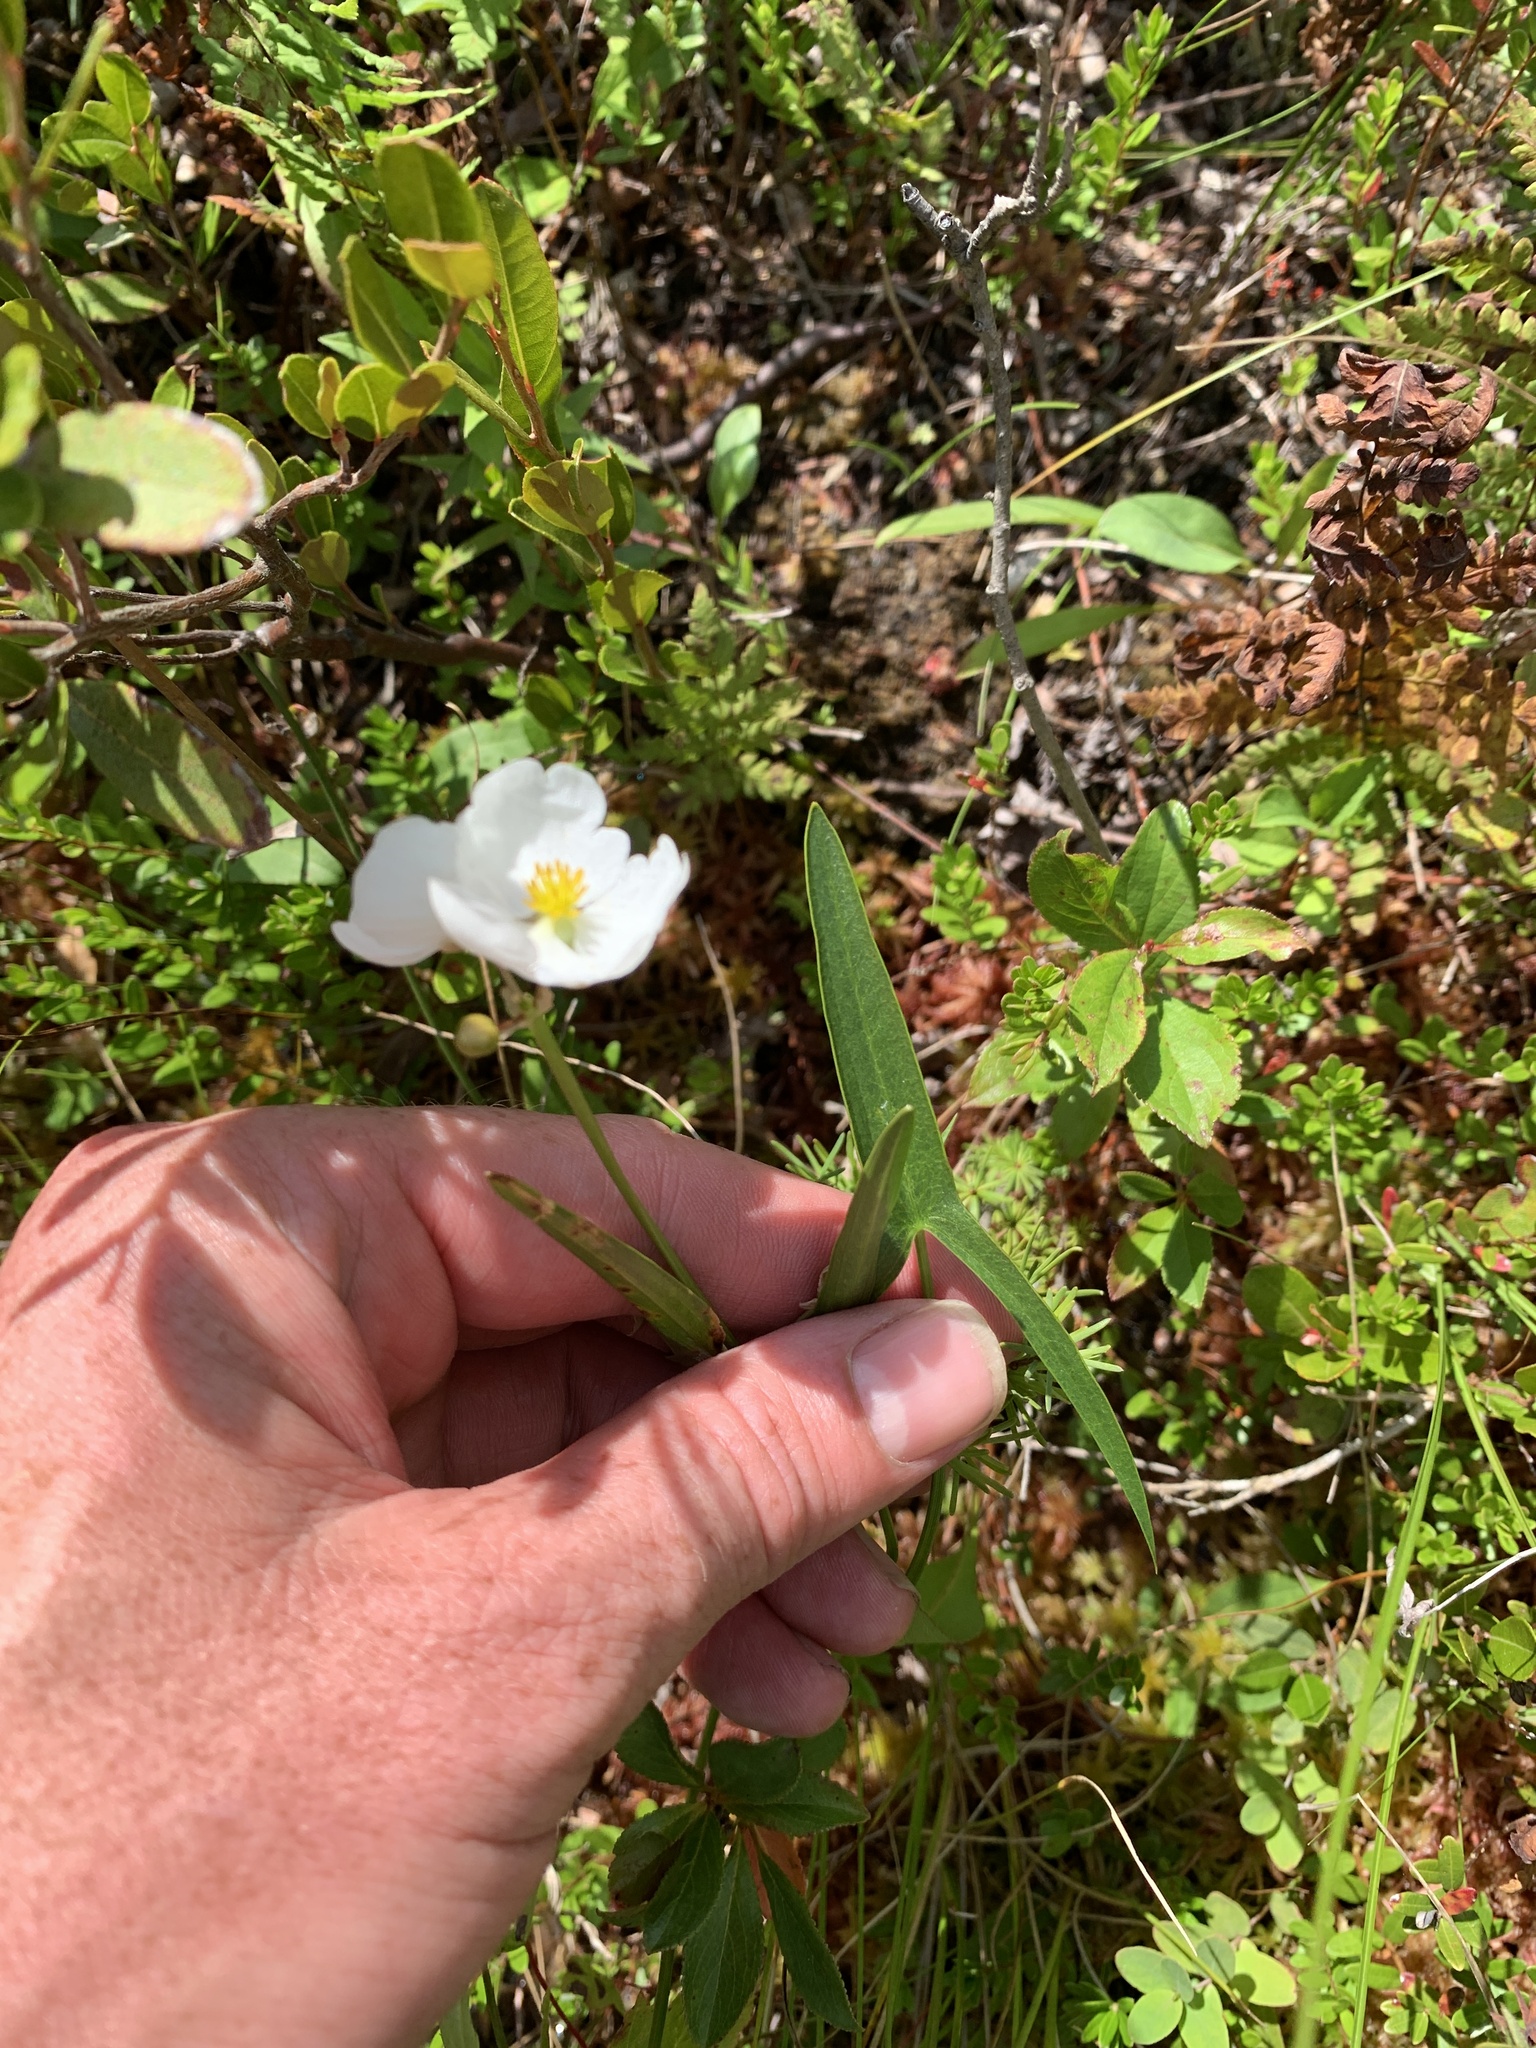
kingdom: Plantae
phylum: Tracheophyta
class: Liliopsida
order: Alismatales
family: Alismataceae
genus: Sagittaria
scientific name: Sagittaria latifolia
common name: Duck-potato
